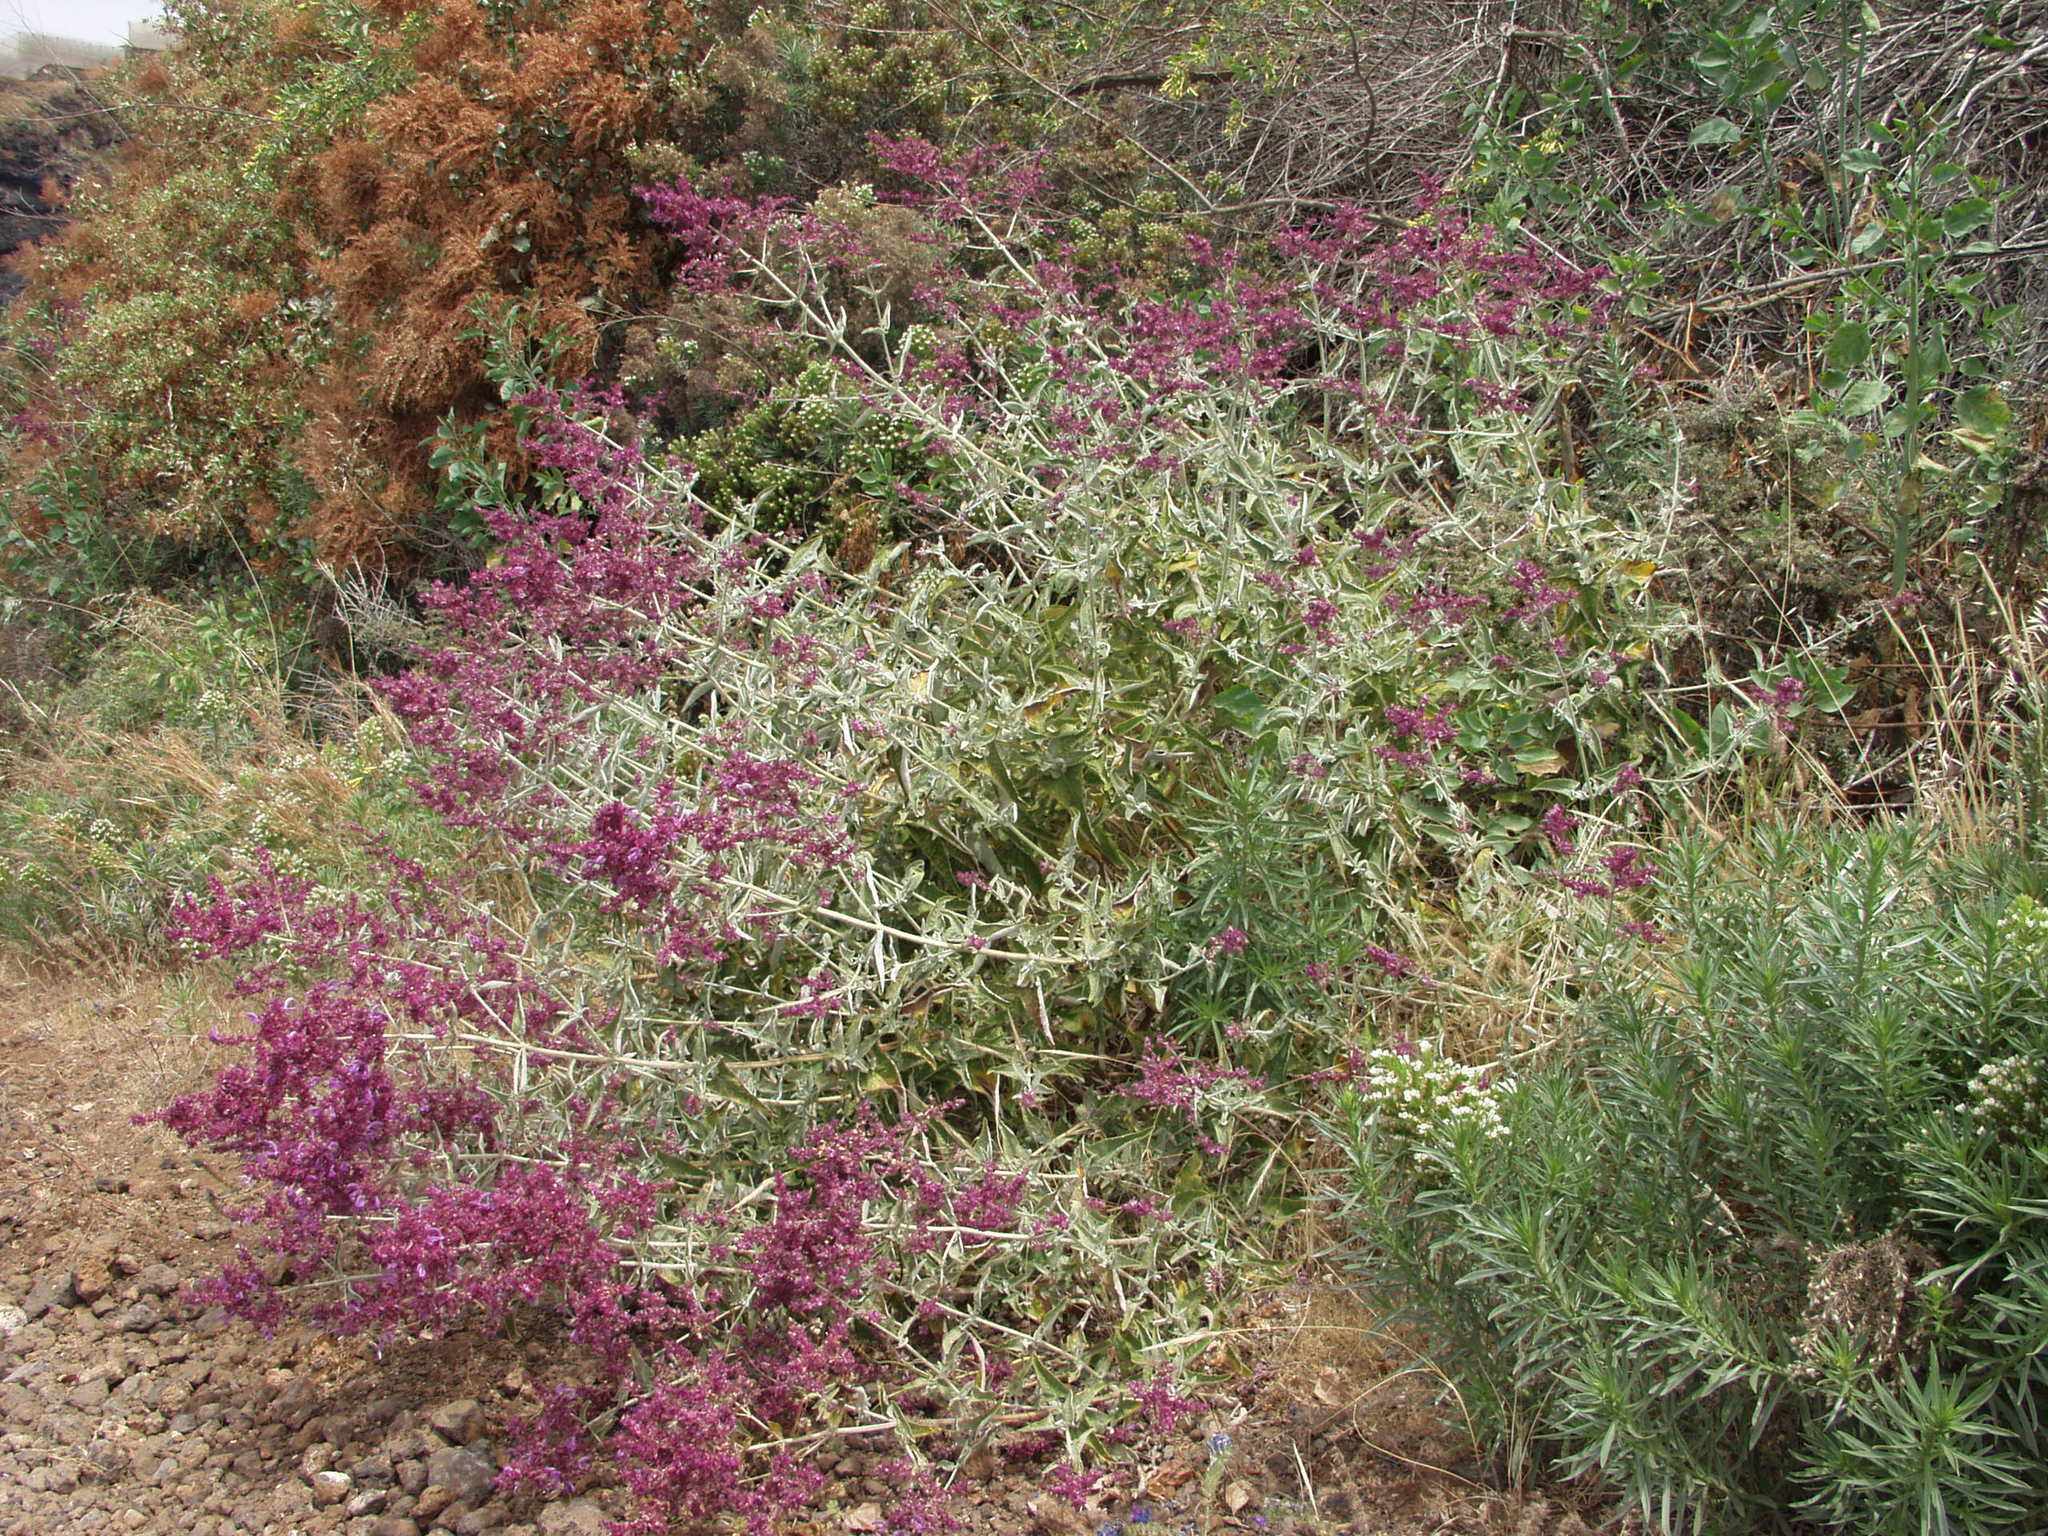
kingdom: Plantae
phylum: Tracheophyta
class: Magnoliopsida
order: Lamiales
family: Lamiaceae
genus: Salvia
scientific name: Salvia canariensis
